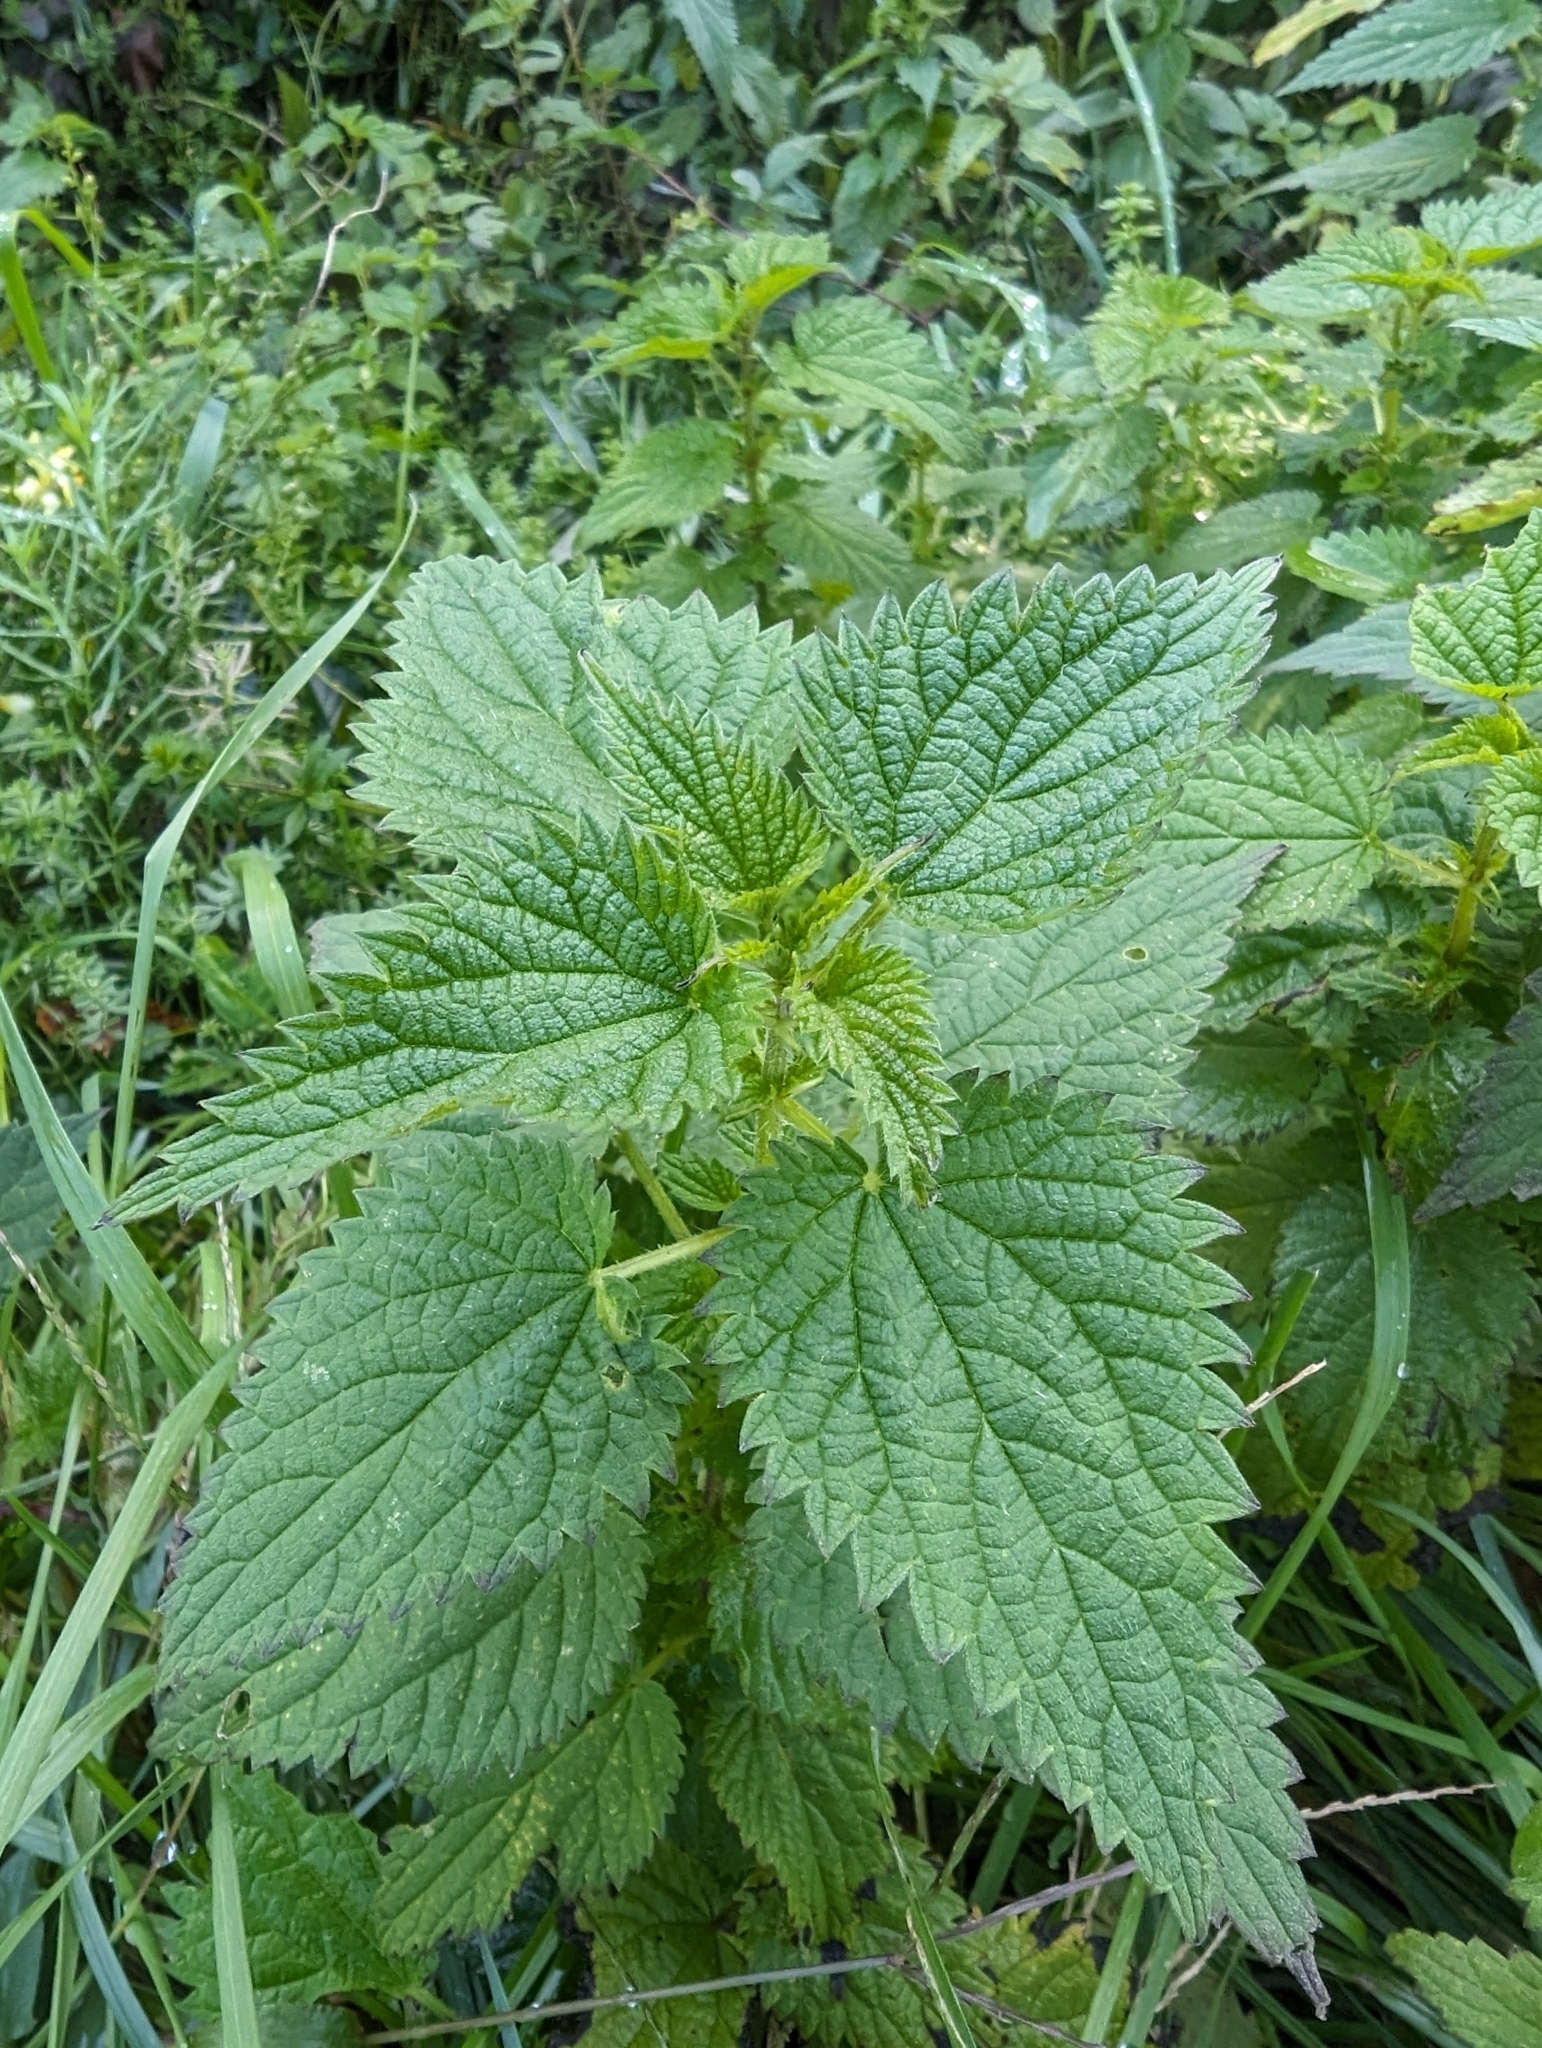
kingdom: Plantae
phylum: Tracheophyta
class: Magnoliopsida
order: Rosales
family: Urticaceae
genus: Urtica
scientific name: Urtica dioica
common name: Common nettle
